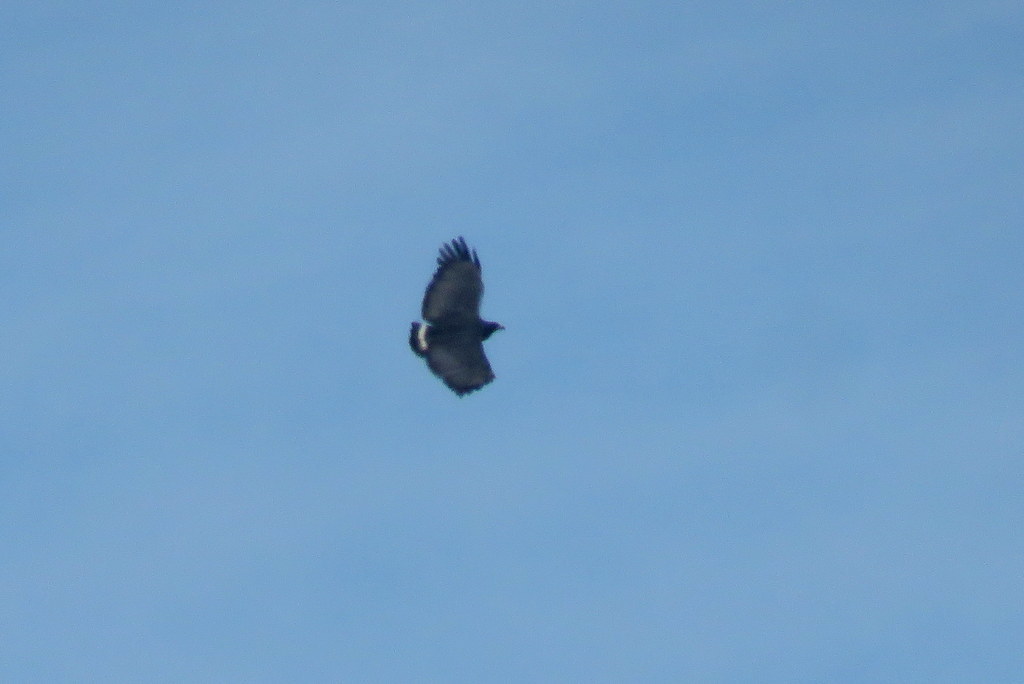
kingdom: Animalia
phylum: Chordata
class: Aves
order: Accipitriformes
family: Accipitridae
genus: Harpyhaliaetus
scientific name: Harpyhaliaetus solitarius
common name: Solitary eagle
